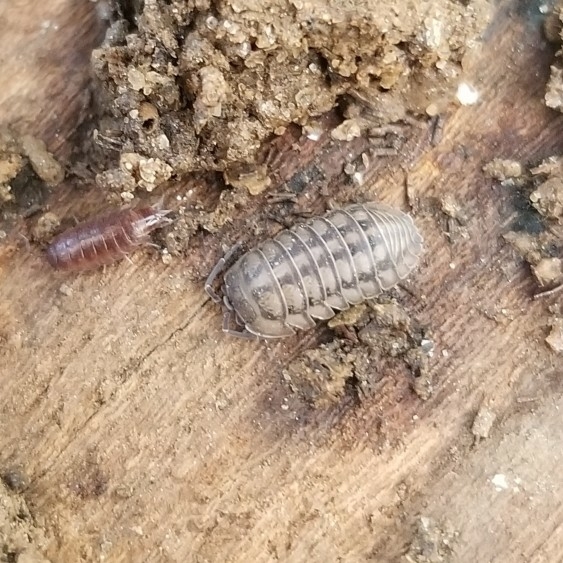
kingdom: Animalia
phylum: Arthropoda
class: Malacostraca
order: Isopoda
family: Armadillidiidae
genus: Armadillidium
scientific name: Armadillidium nasatum
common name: Isopod
